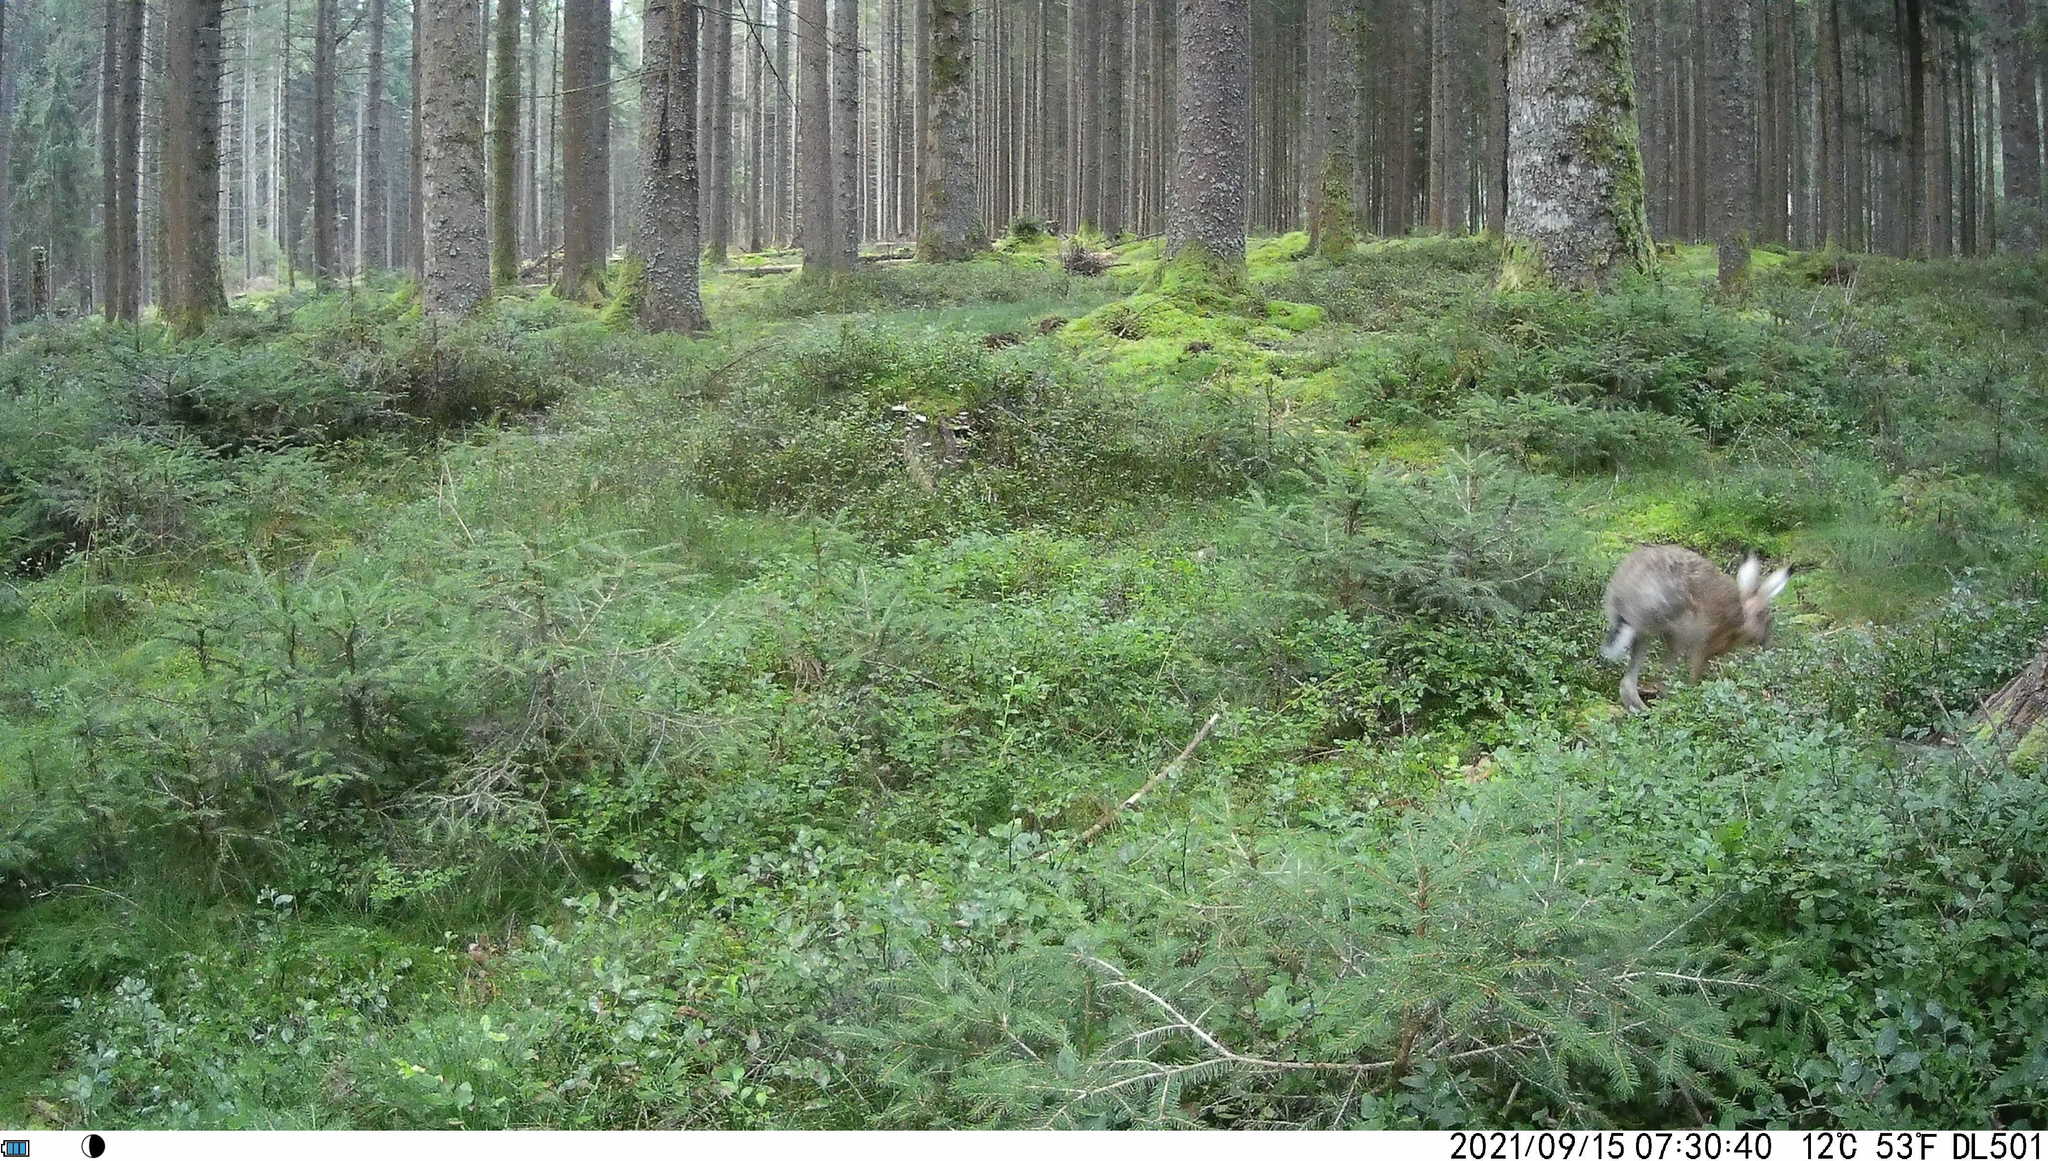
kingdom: Animalia
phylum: Chordata
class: Mammalia
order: Lagomorpha
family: Leporidae
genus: Lepus
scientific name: Lepus europaeus
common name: European hare
